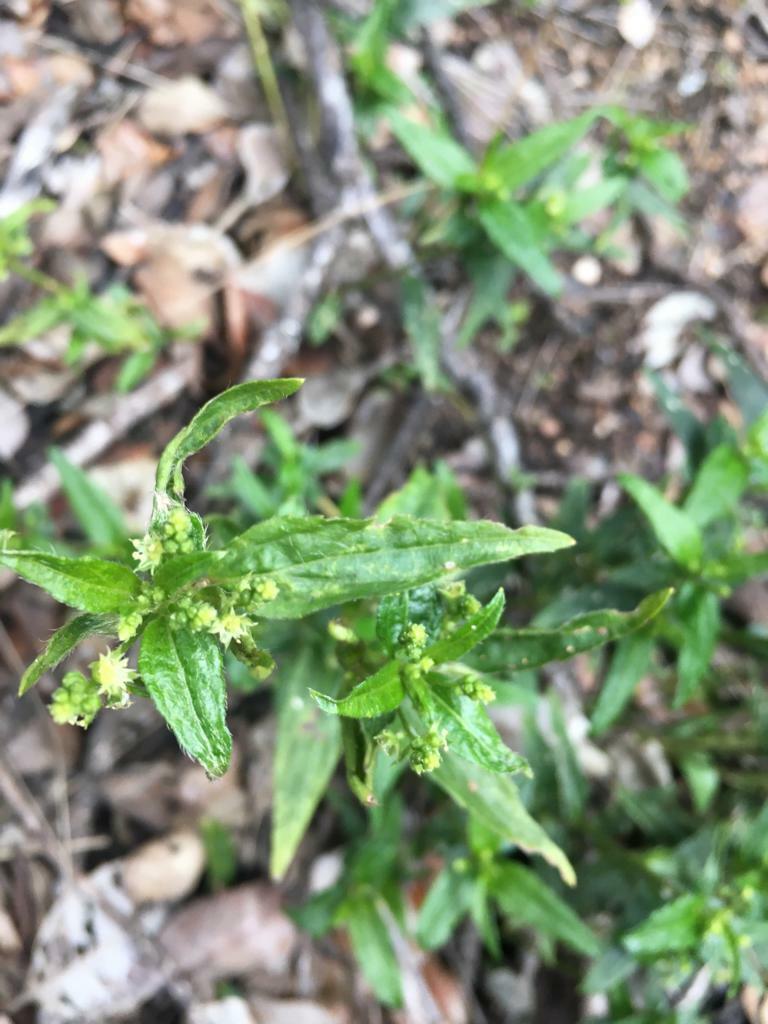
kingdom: Plantae
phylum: Tracheophyta
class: Magnoliopsida
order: Malpighiales
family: Euphorbiaceae
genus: Chiropetalum
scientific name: Chiropetalum tricuspidatum
